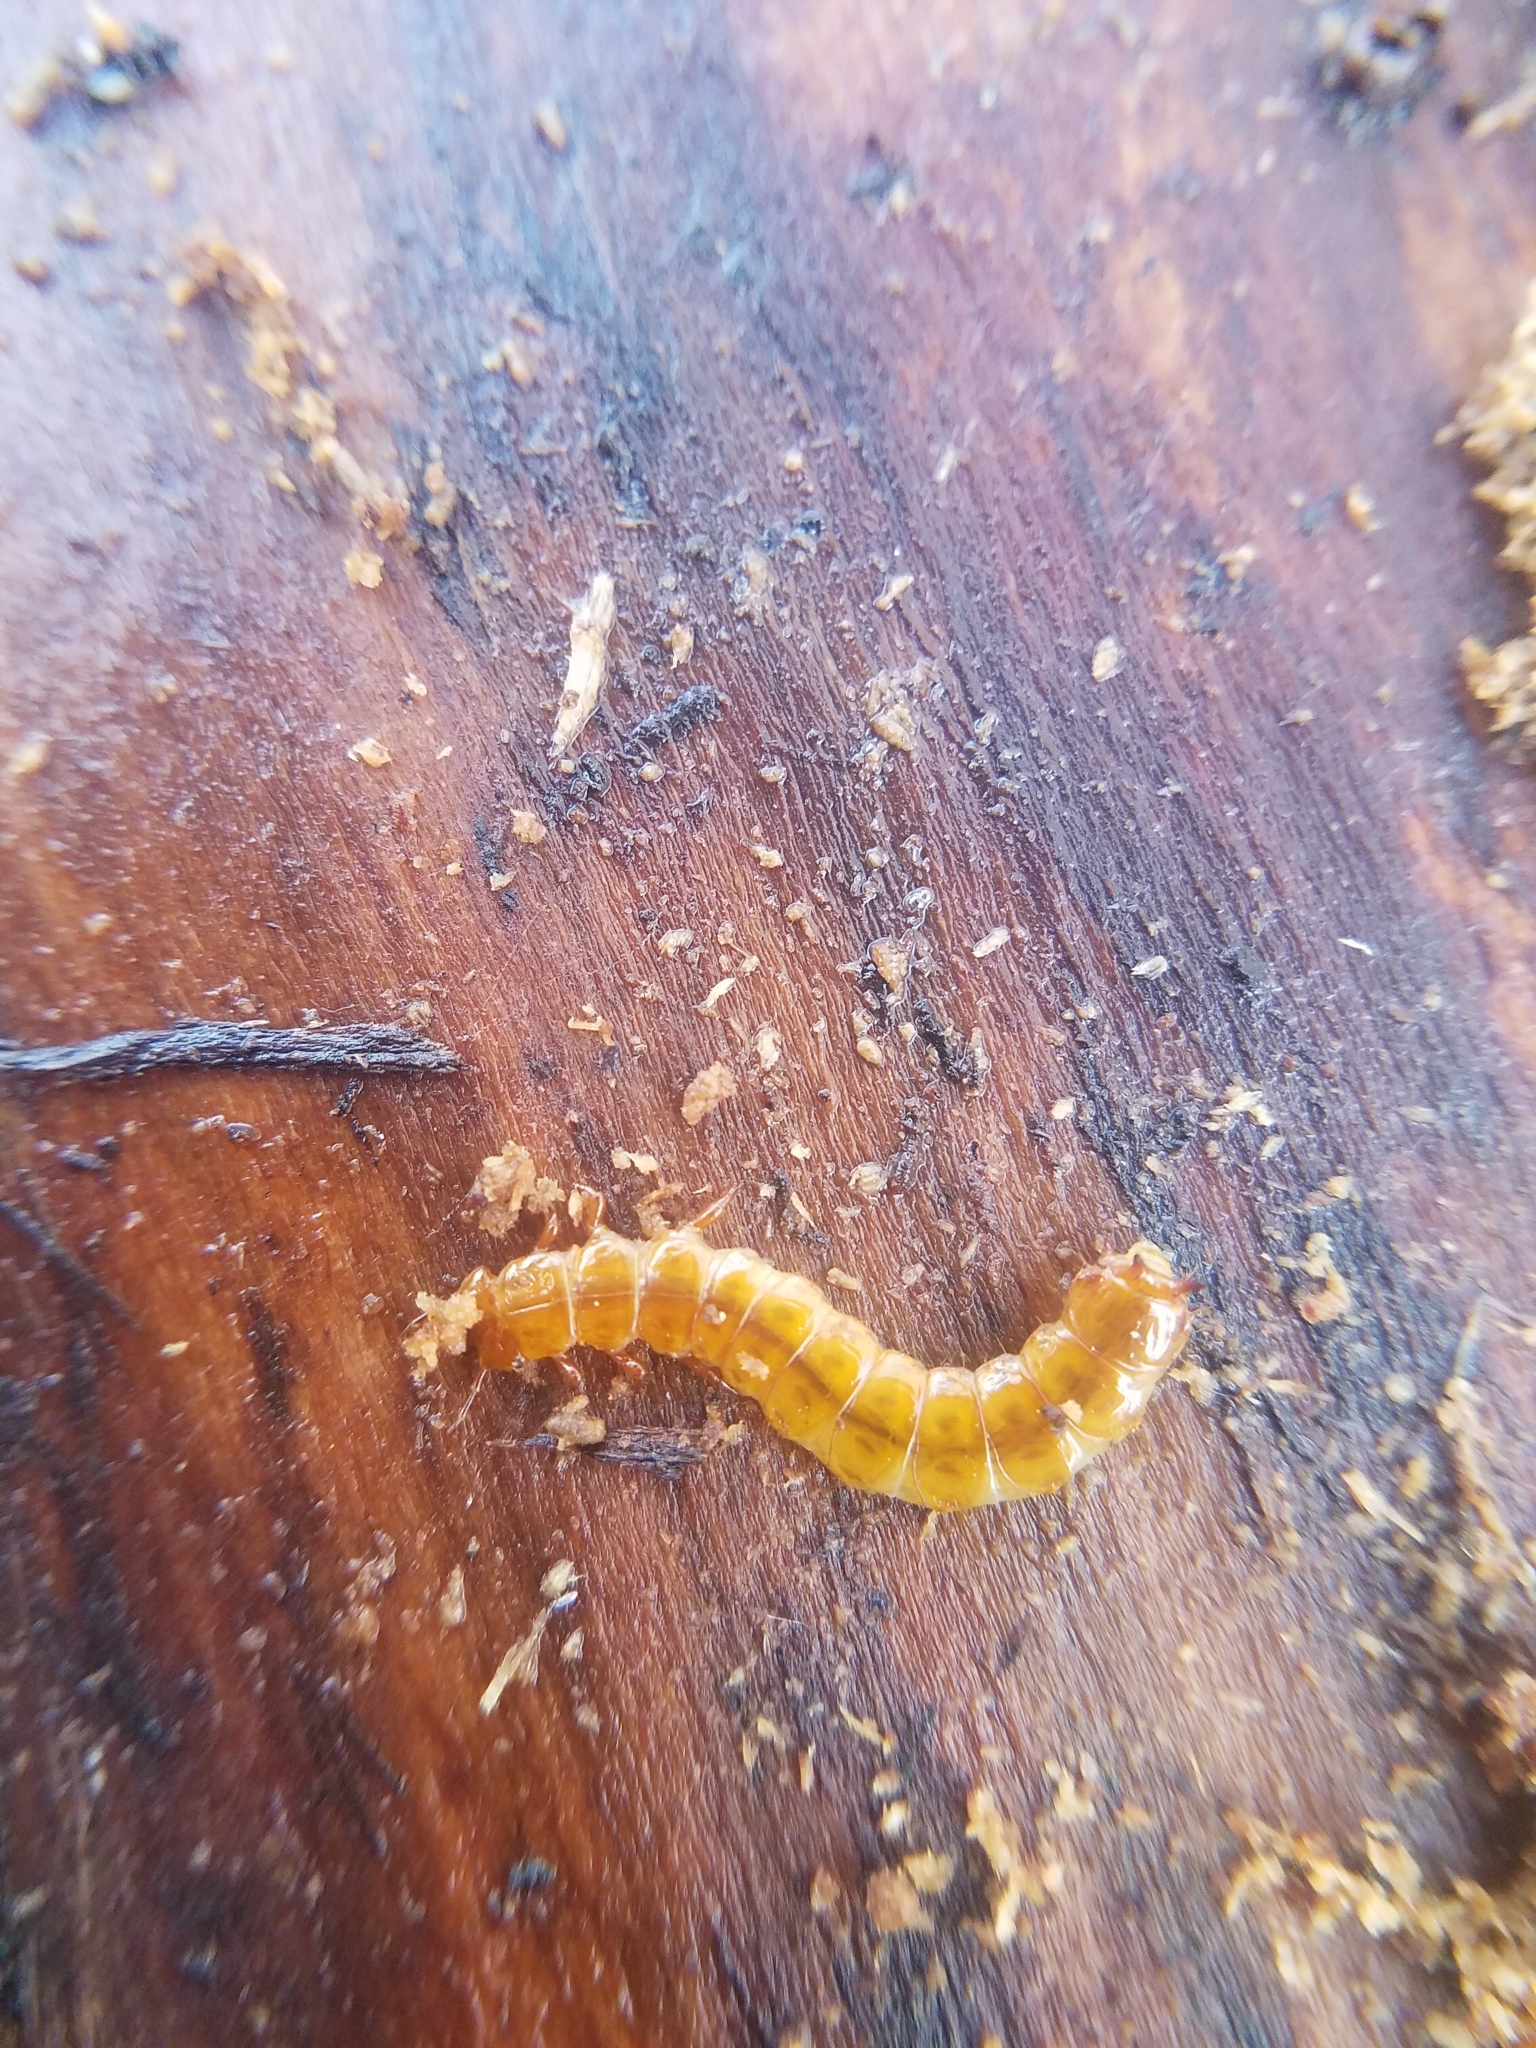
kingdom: Animalia
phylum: Arthropoda
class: Insecta
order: Coleoptera
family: Cucujidae
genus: Cucujus
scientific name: Cucujus clavipes
